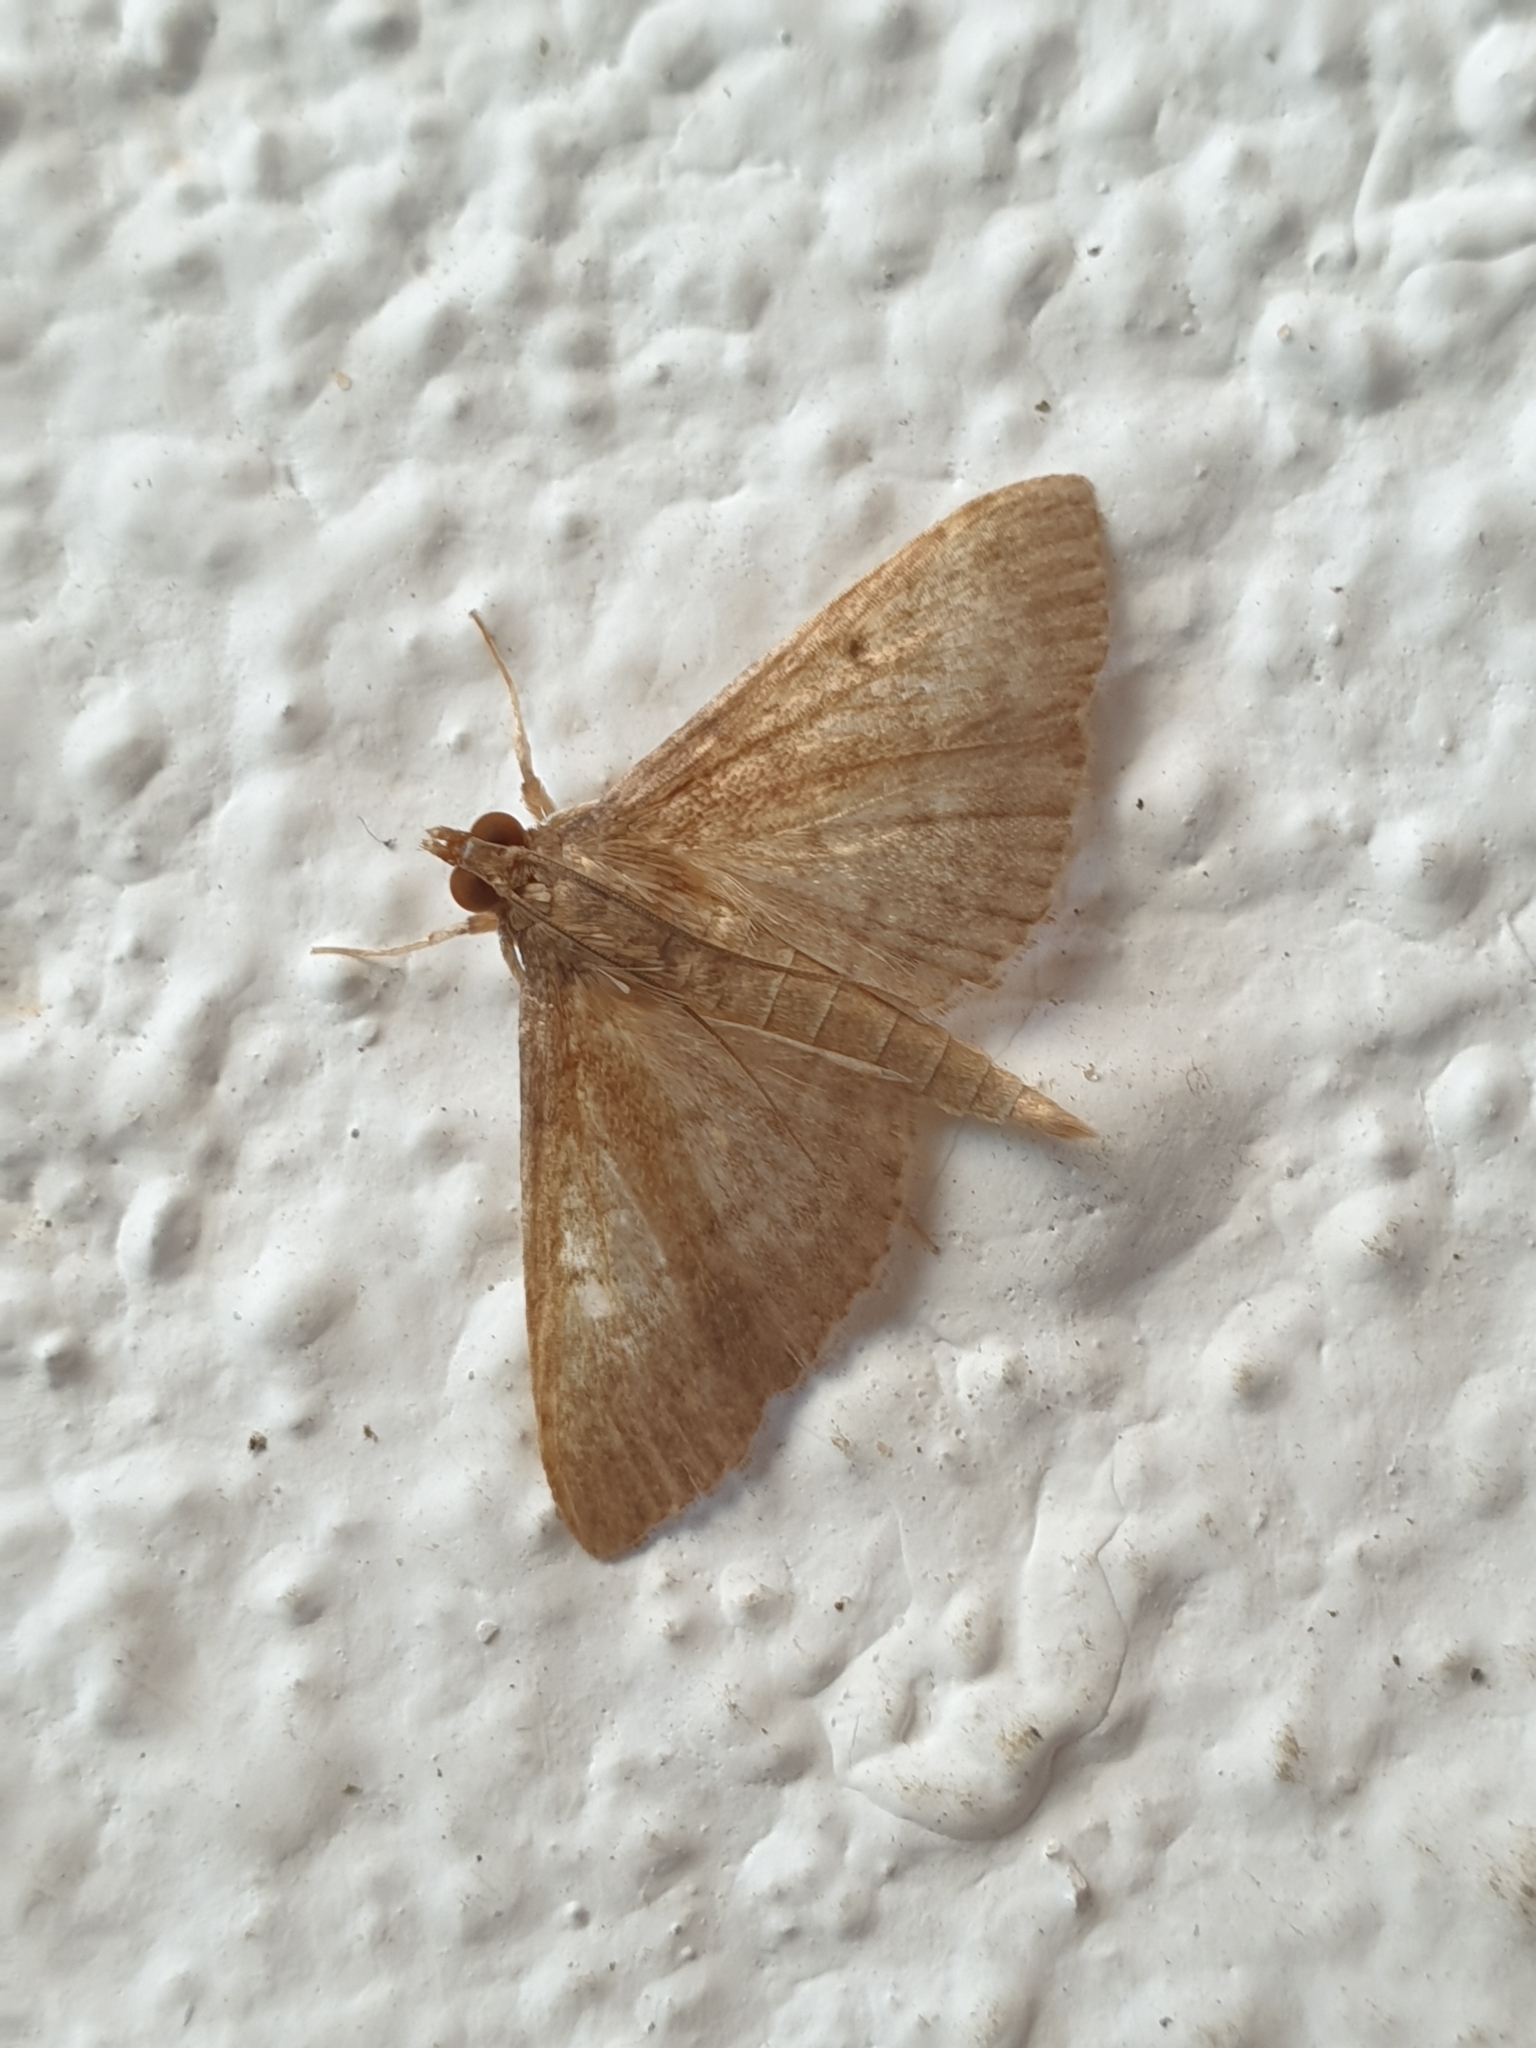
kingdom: Animalia
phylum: Arthropoda
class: Insecta
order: Lepidoptera
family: Crambidae
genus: Herpetogramma
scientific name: Herpetogramma licarsisalis
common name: Grass webworm
